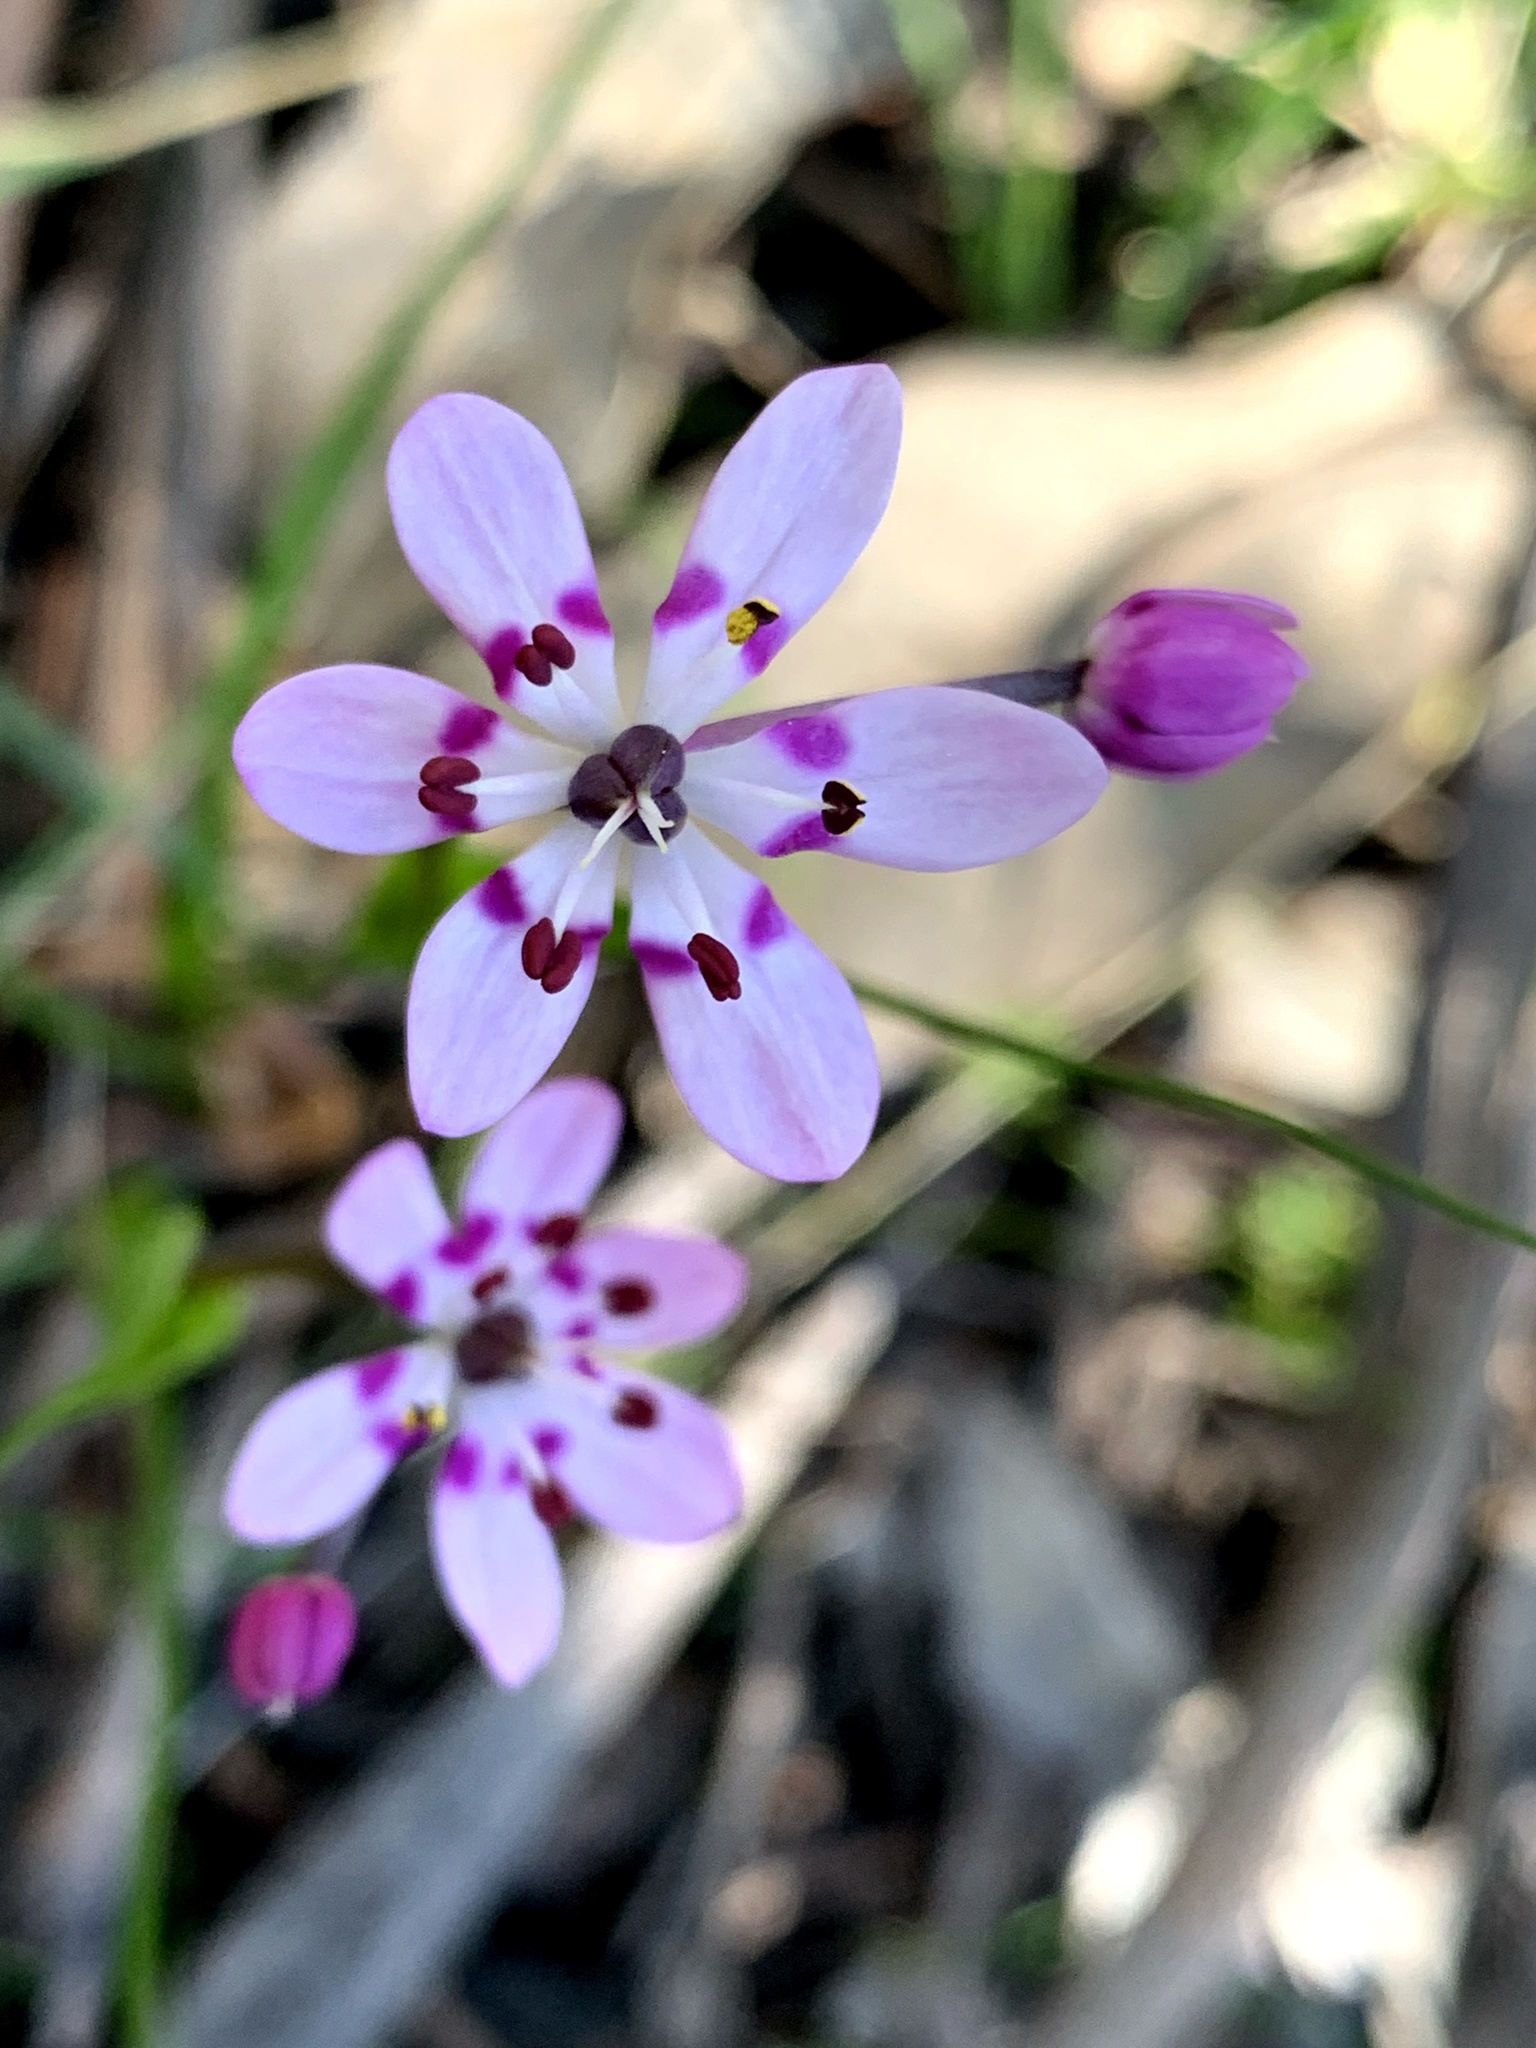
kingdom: Plantae
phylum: Tracheophyta
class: Liliopsida
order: Liliales
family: Colchicaceae
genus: Wurmbea
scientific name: Wurmbea dioica
